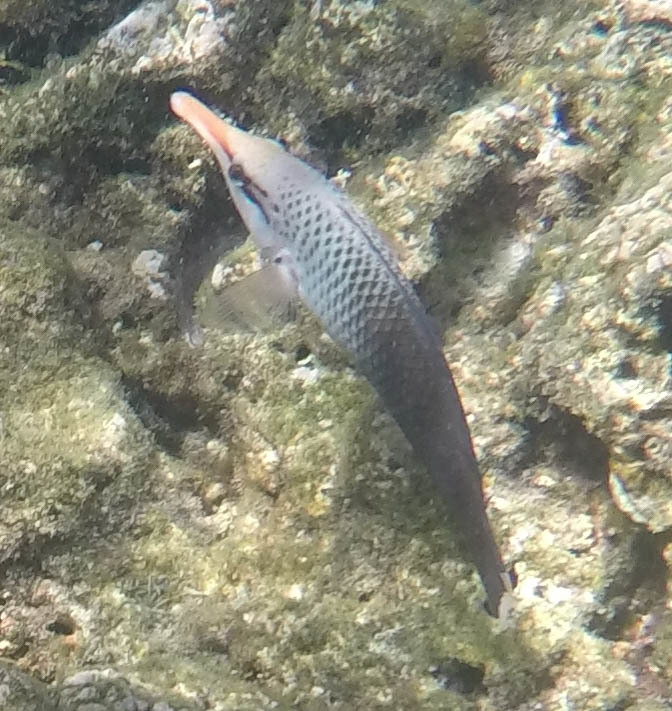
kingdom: Animalia
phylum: Chordata
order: Perciformes
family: Labridae
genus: Gomphosus
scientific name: Gomphosus varius
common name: Bird wrasse
